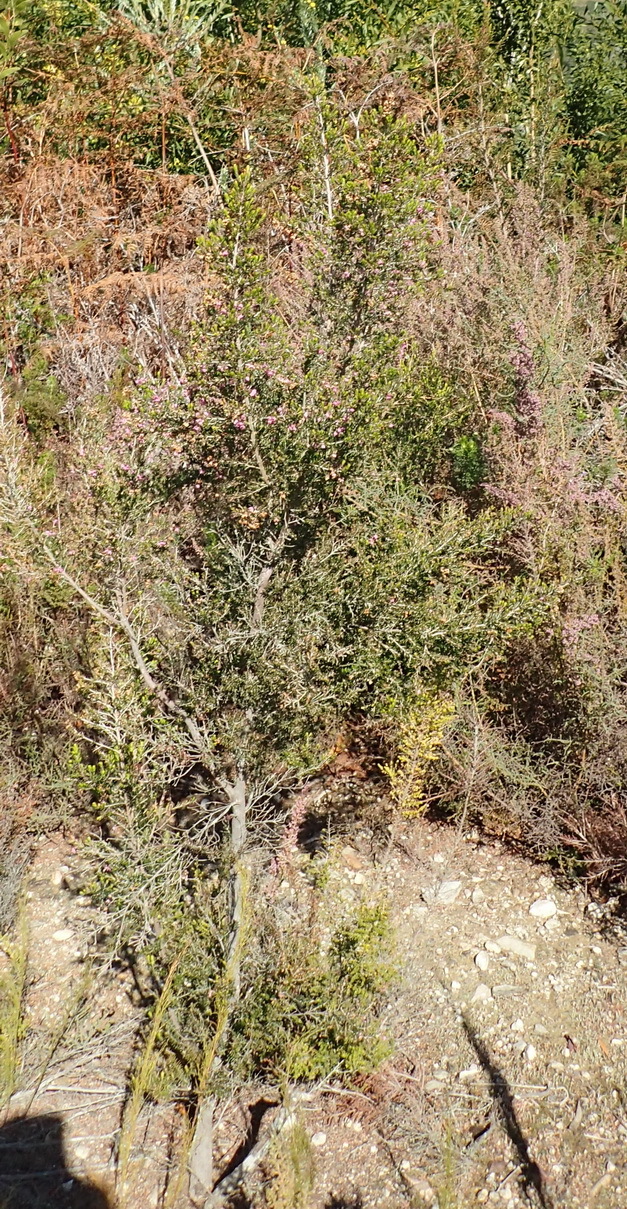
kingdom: Plantae
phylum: Tracheophyta
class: Magnoliopsida
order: Ericales
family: Ericaceae
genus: Erica
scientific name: Erica canaliculata
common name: Hairy grey heather
